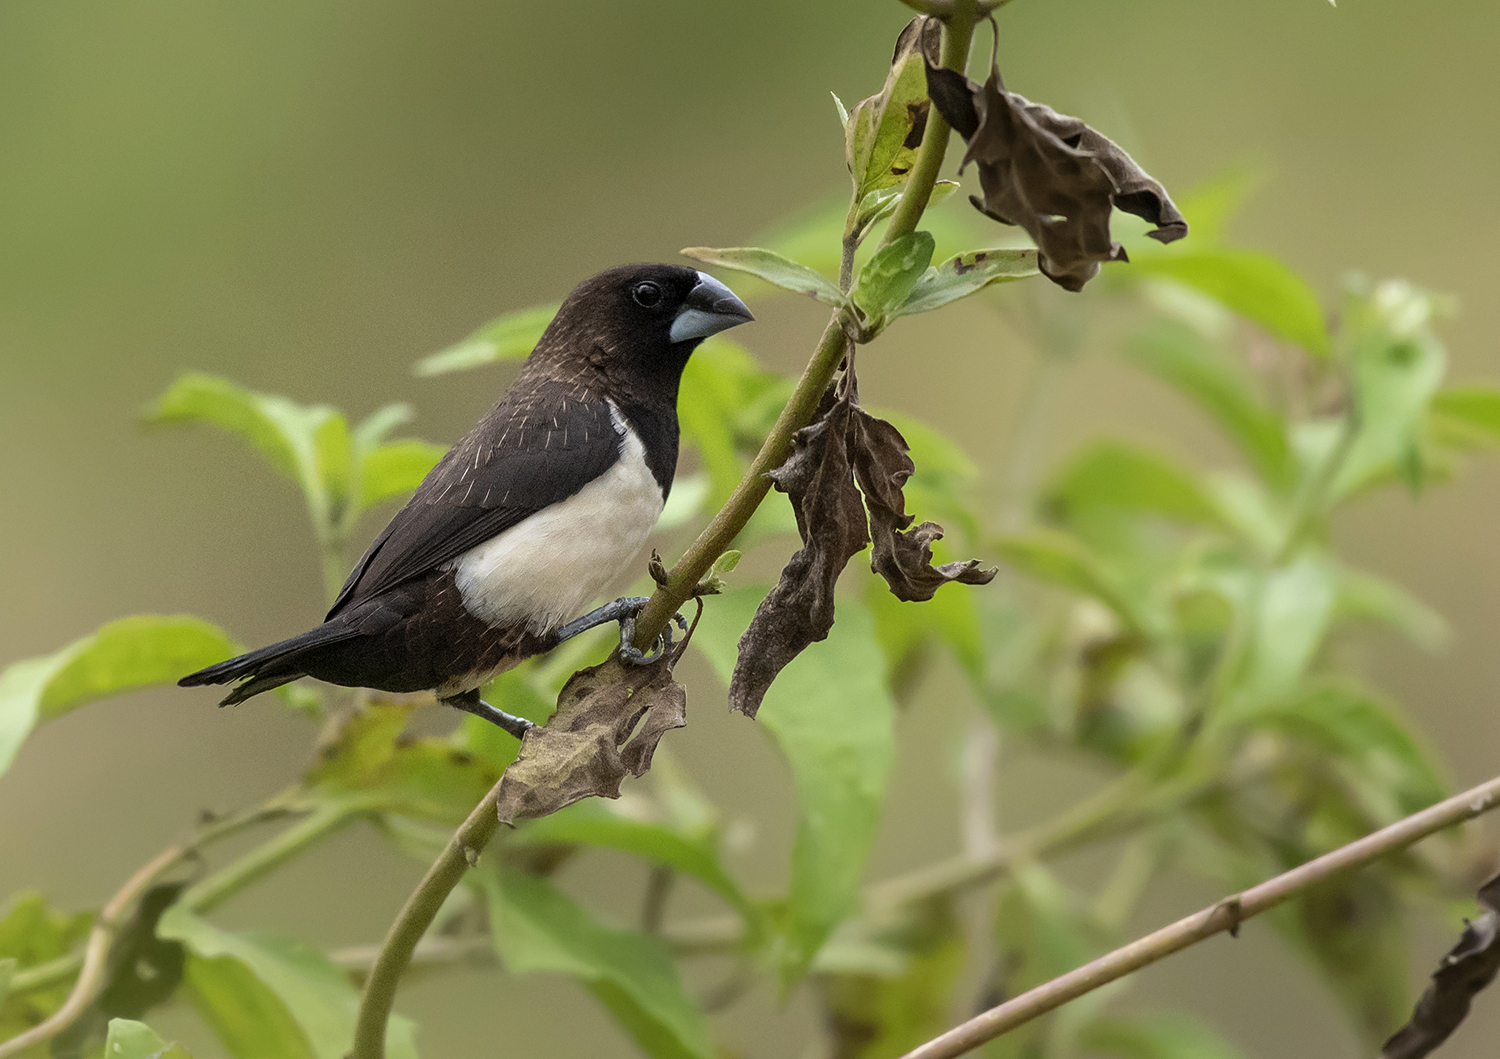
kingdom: Animalia
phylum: Chordata
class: Aves
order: Passeriformes
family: Estrildidae
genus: Lonchura
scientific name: Lonchura striata
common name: White-rumped munia
